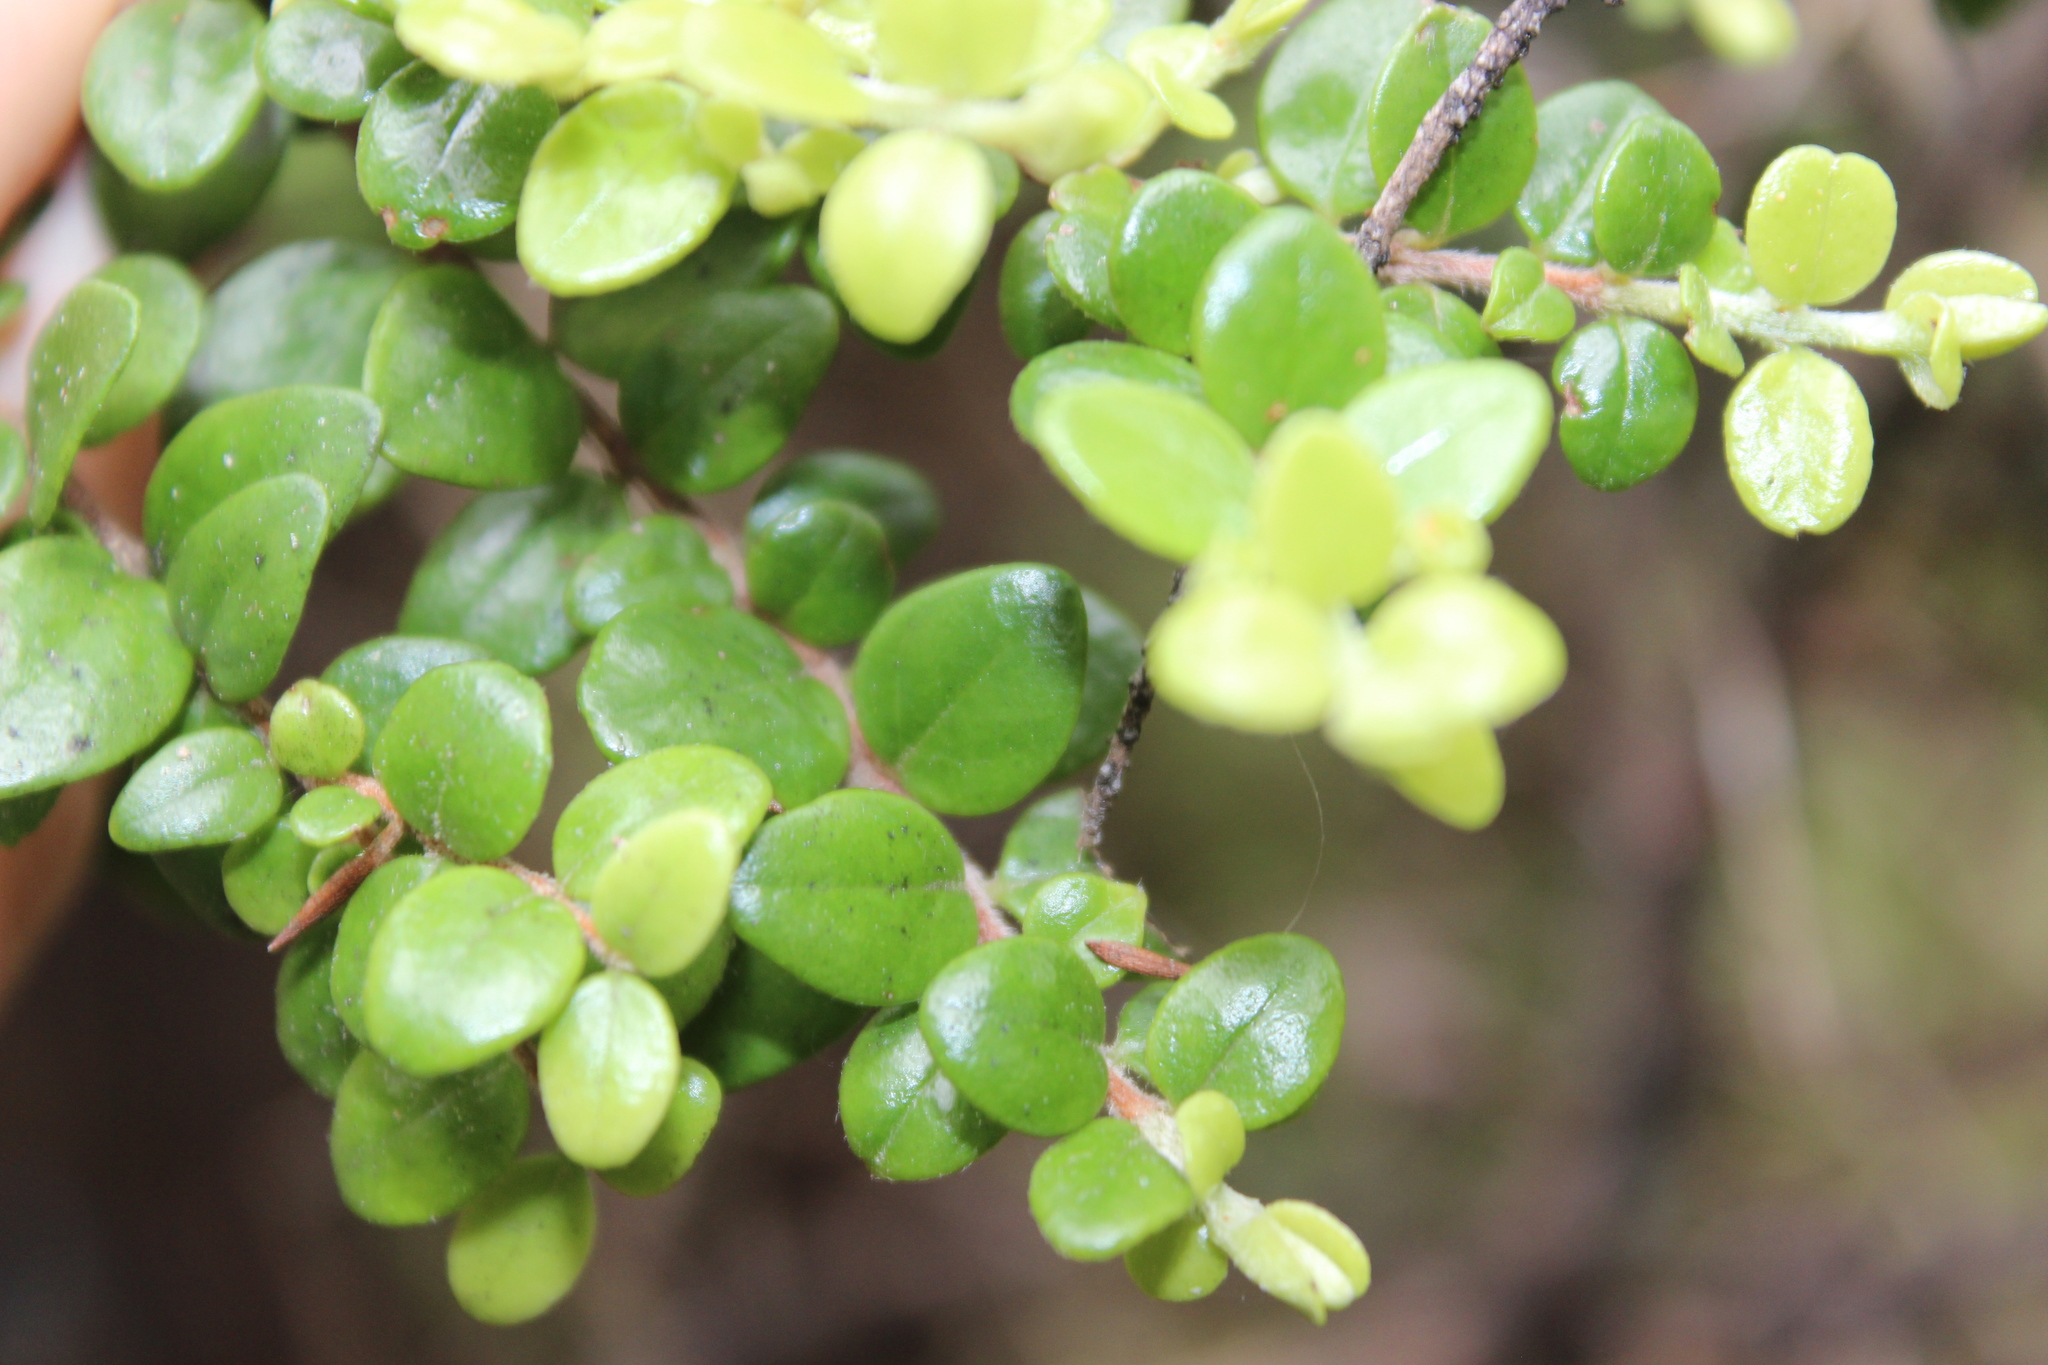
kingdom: Plantae
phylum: Tracheophyta
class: Magnoliopsida
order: Myrtales
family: Myrtaceae
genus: Metrosideros
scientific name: Metrosideros perforata
